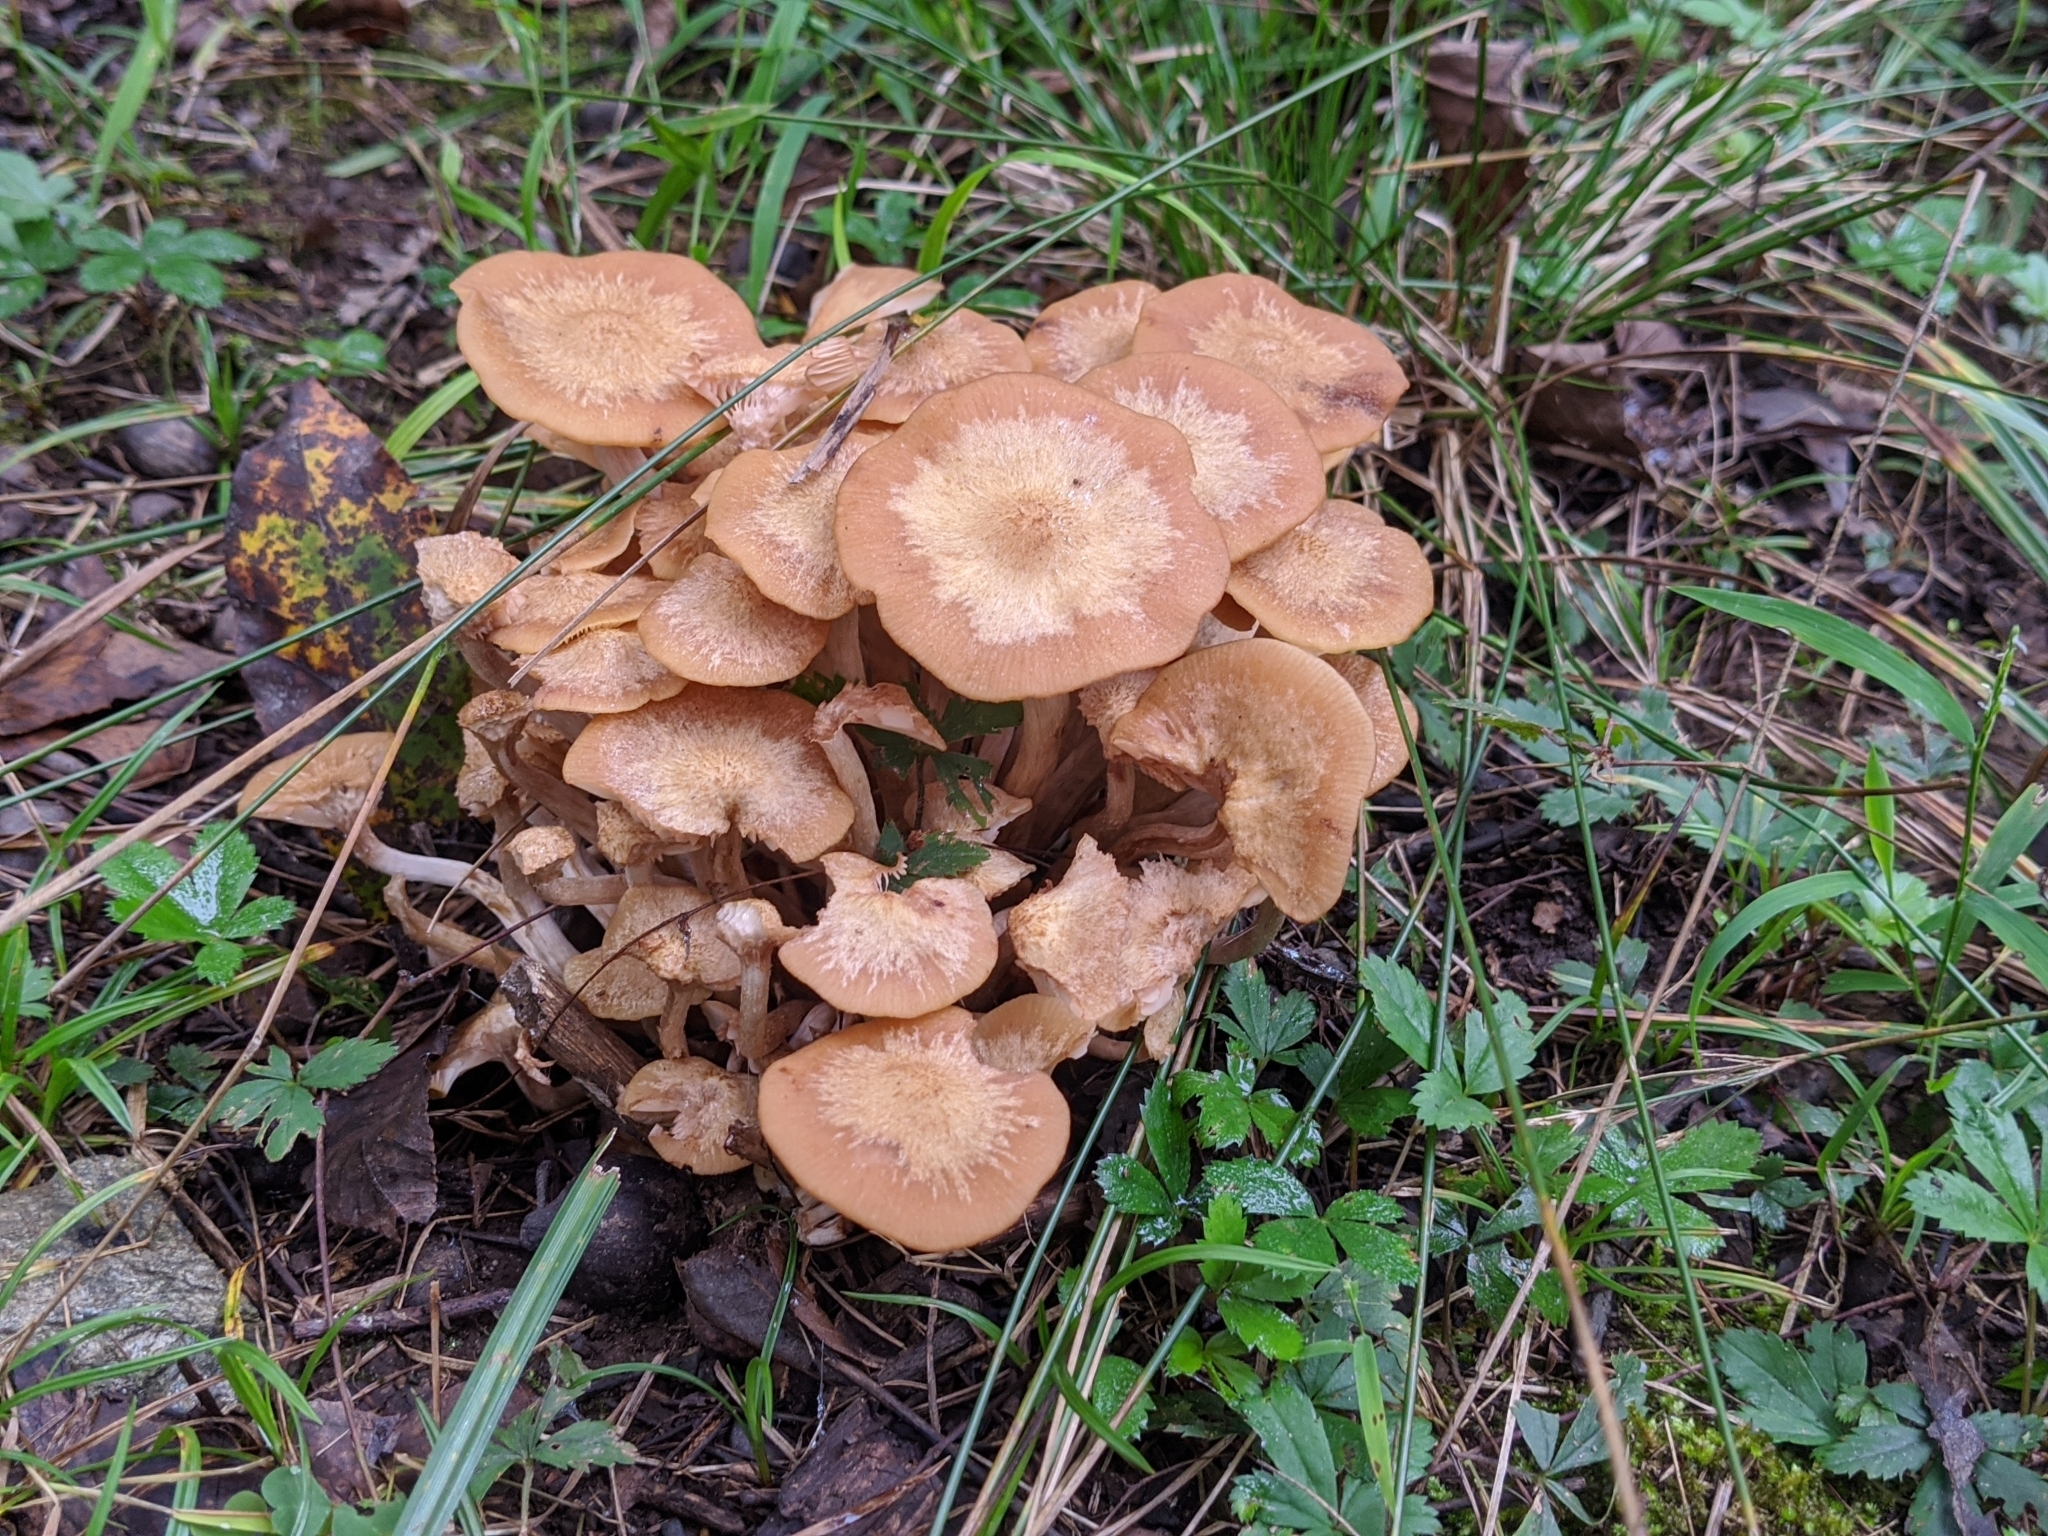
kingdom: Fungi
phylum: Basidiomycota
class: Agaricomycetes
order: Agaricales
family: Physalacriaceae
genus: Desarmillaria
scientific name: Desarmillaria caespitosa
